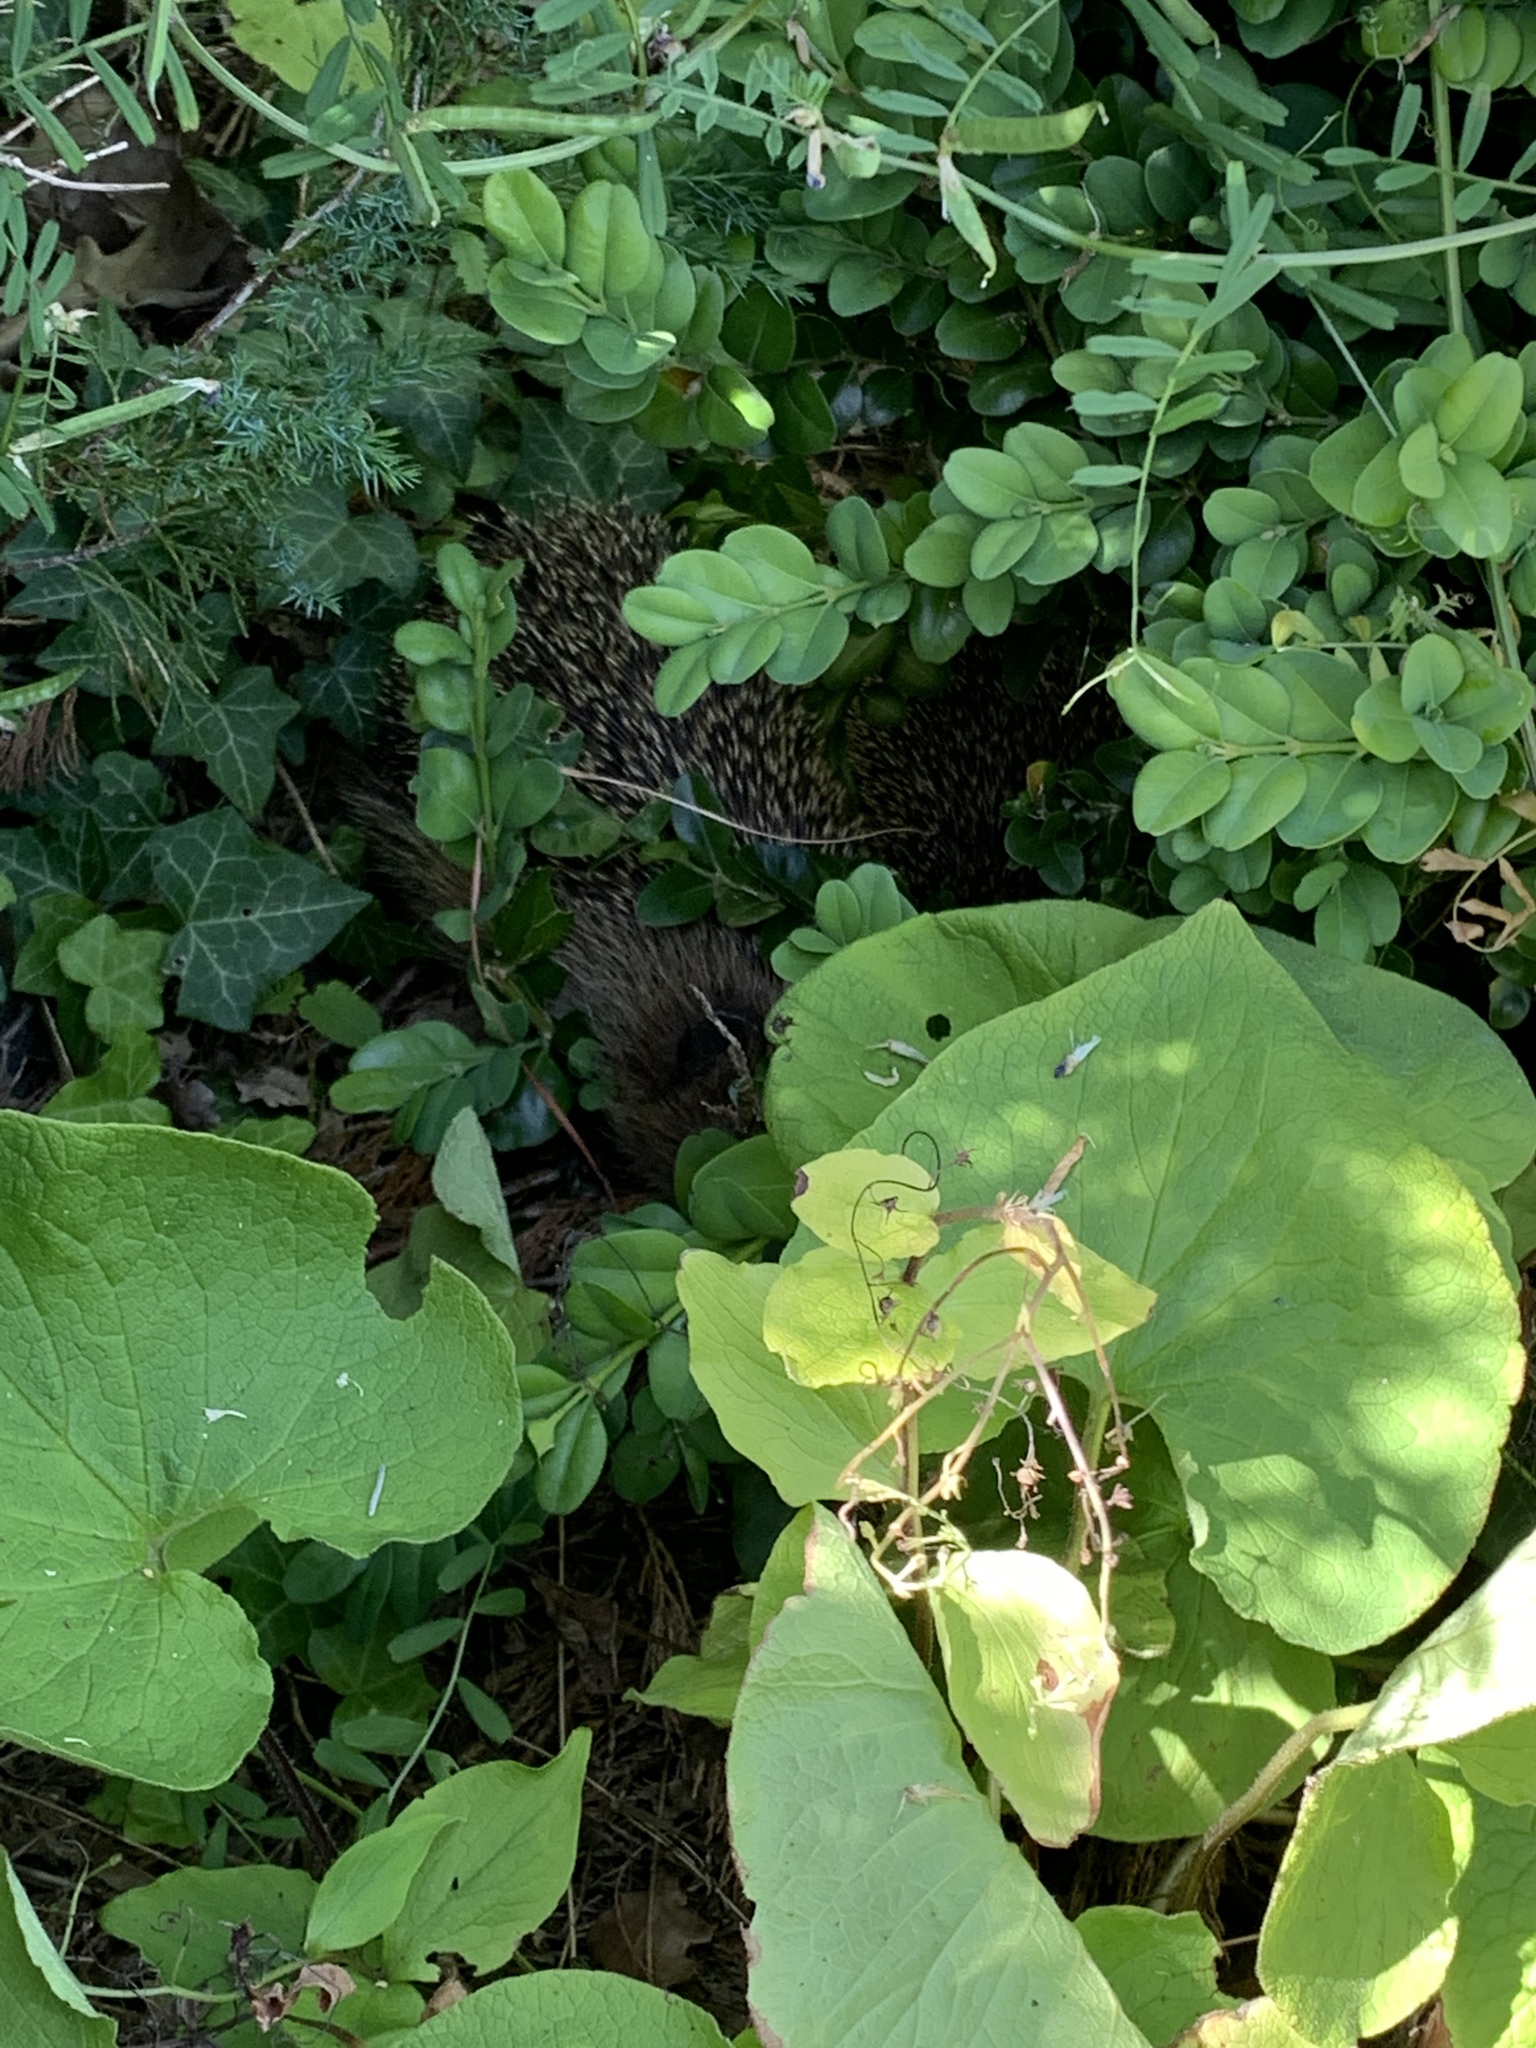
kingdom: Animalia
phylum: Chordata
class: Mammalia
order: Erinaceomorpha
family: Erinaceidae
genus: Erinaceus
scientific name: Erinaceus europaeus
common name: West european hedgehog
